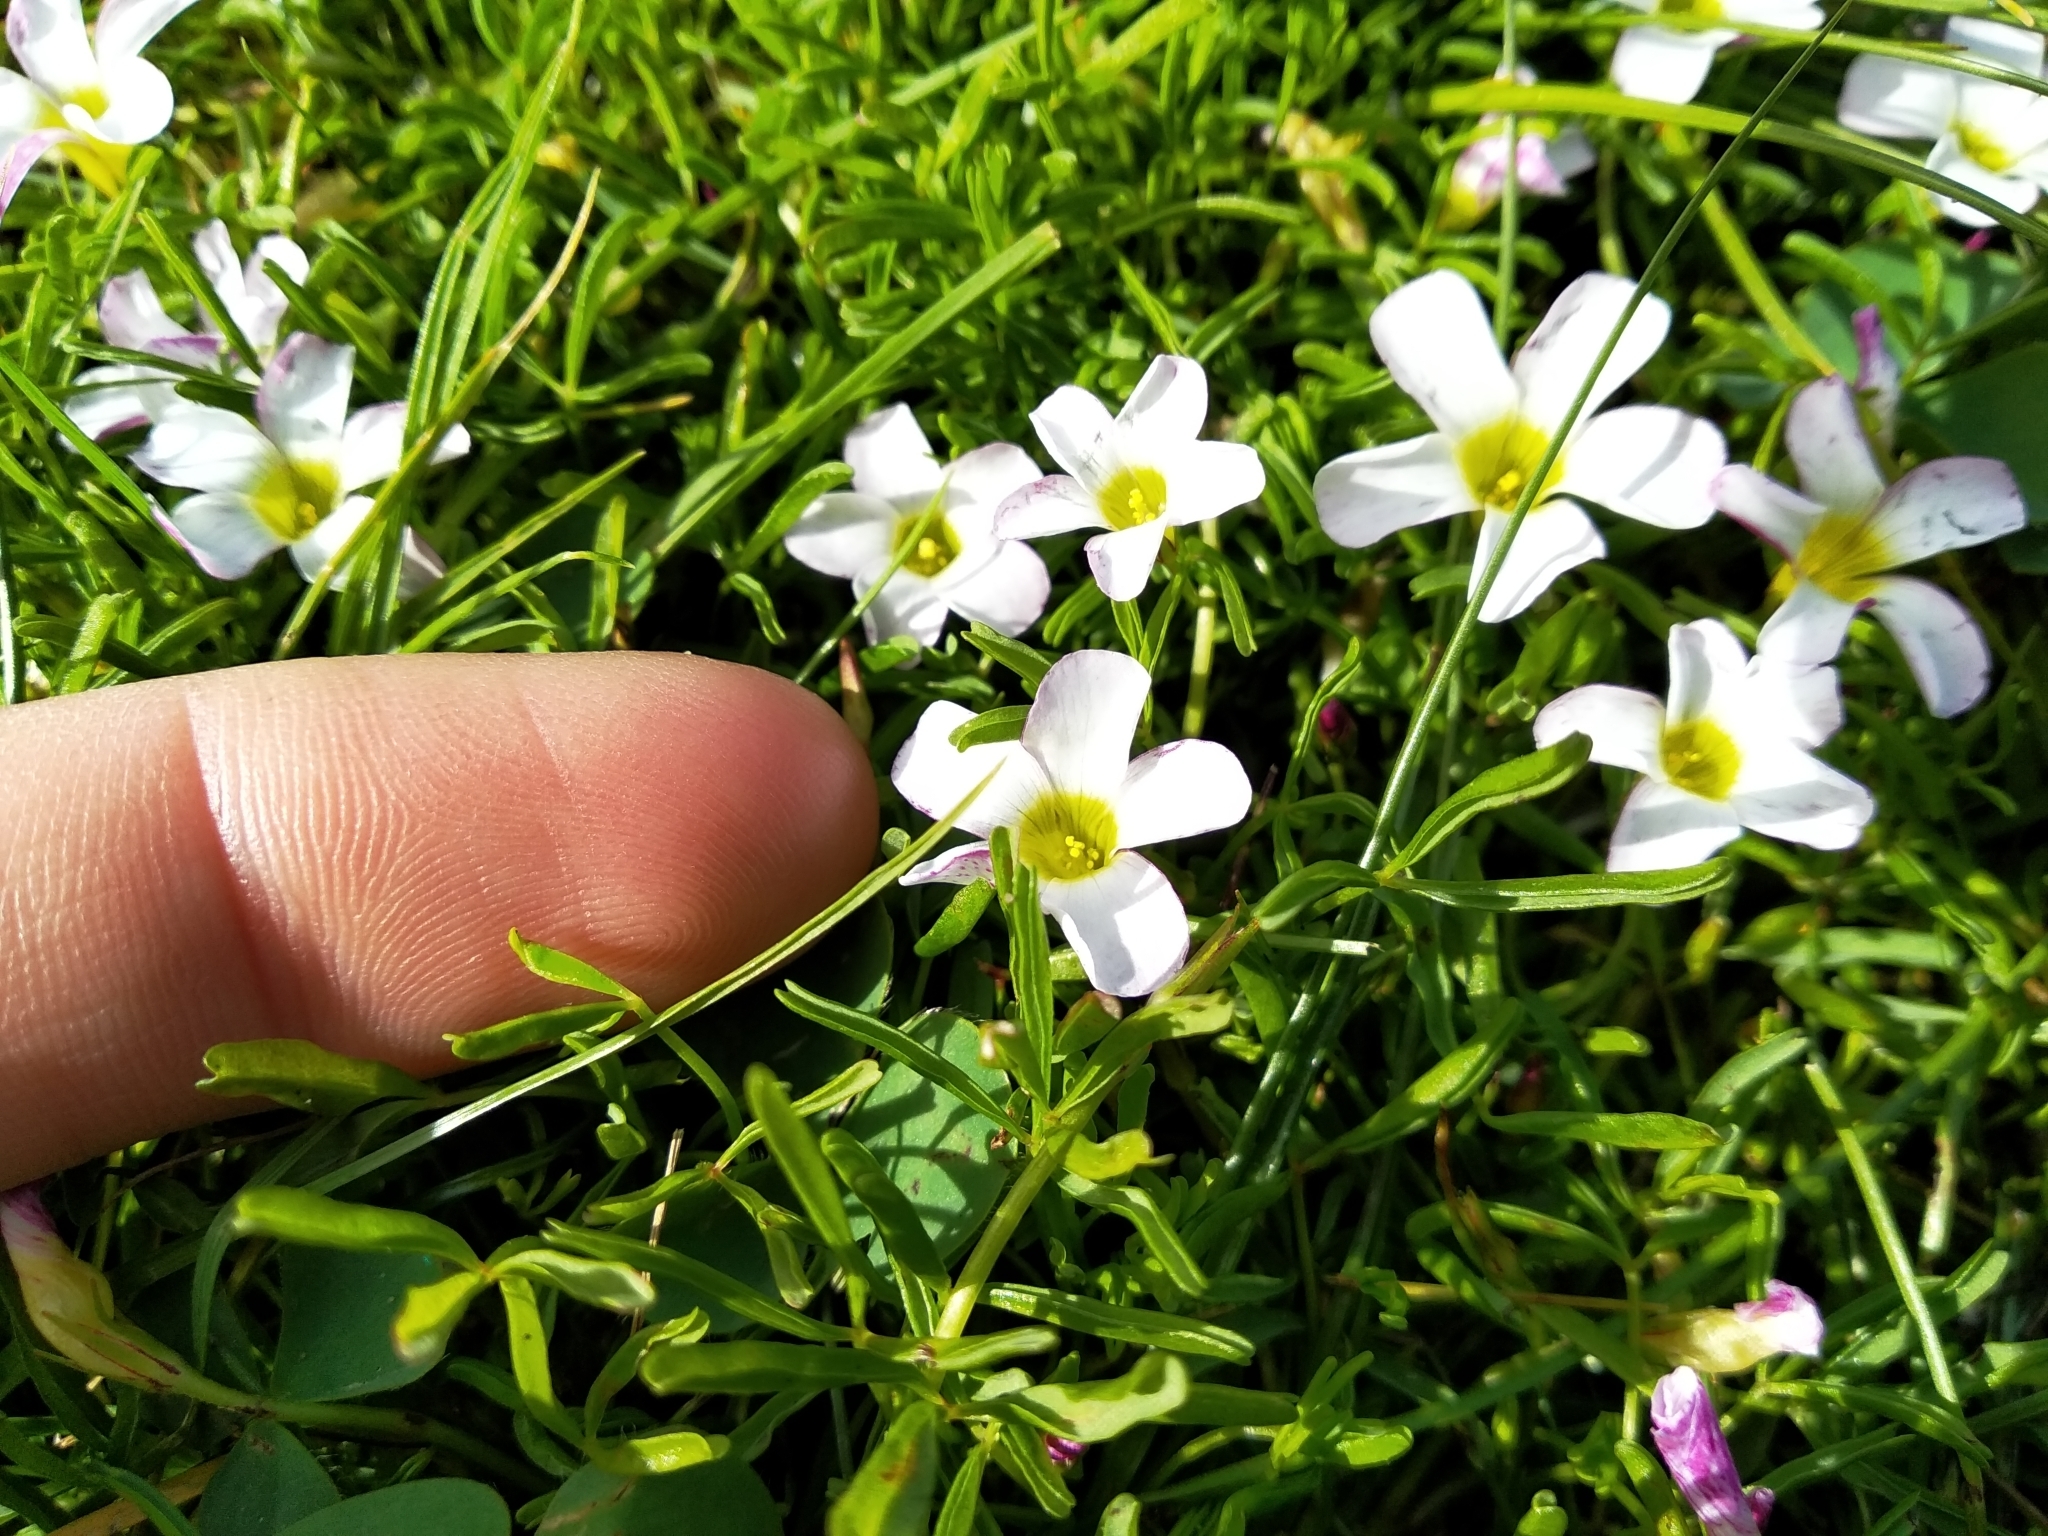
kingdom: Plantae
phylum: Tracheophyta
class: Magnoliopsida
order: Oxalidales
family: Oxalidaceae
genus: Oxalis
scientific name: Oxalis pusilla
